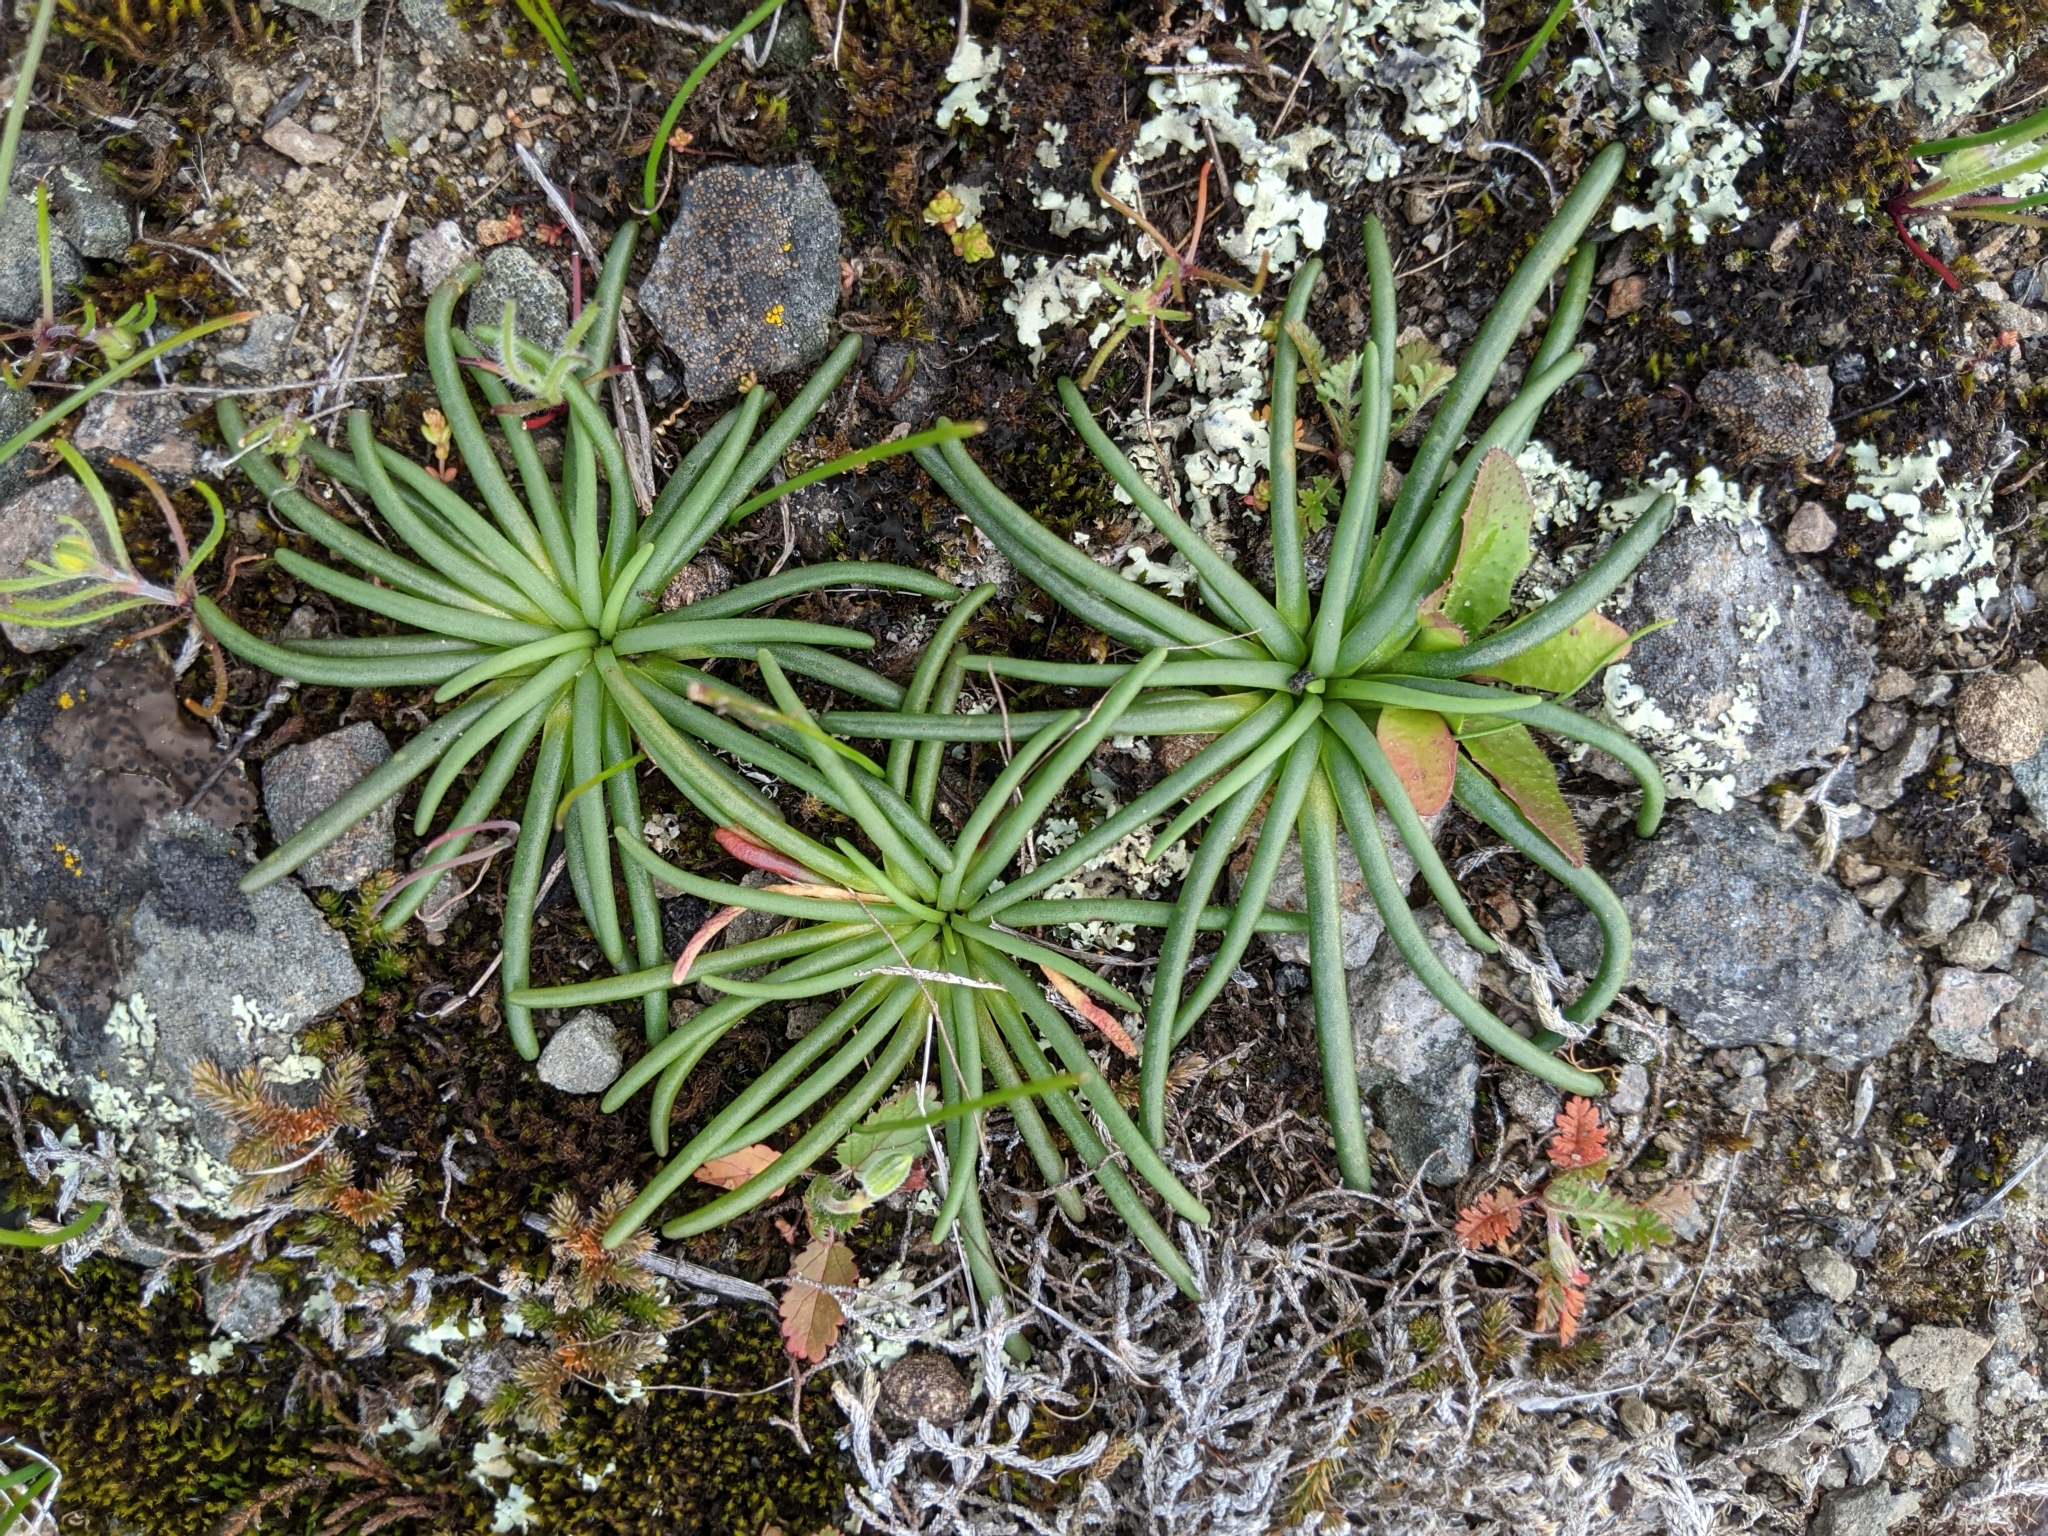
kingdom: Plantae
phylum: Tracheophyta
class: Magnoliopsida
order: Caryophyllales
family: Montiaceae
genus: Lewisia
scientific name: Lewisia rediviva
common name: Bitter-root
